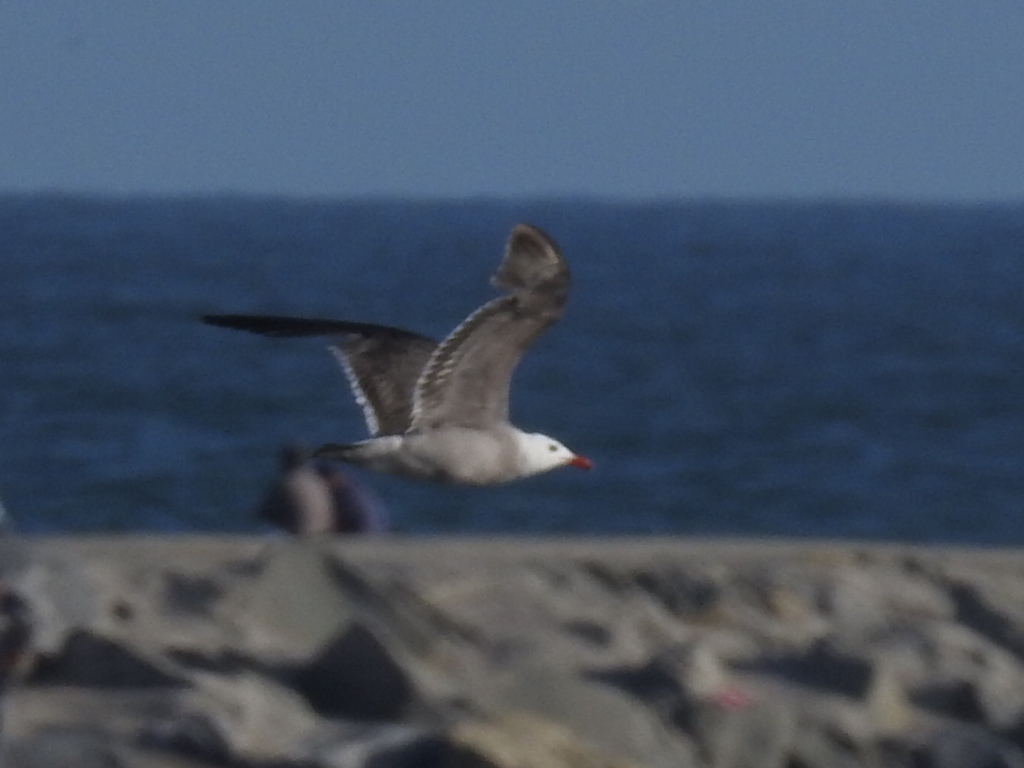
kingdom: Animalia
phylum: Chordata
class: Aves
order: Charadriiformes
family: Laridae
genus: Larus
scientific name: Larus heermanni
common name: Heermann's gull
